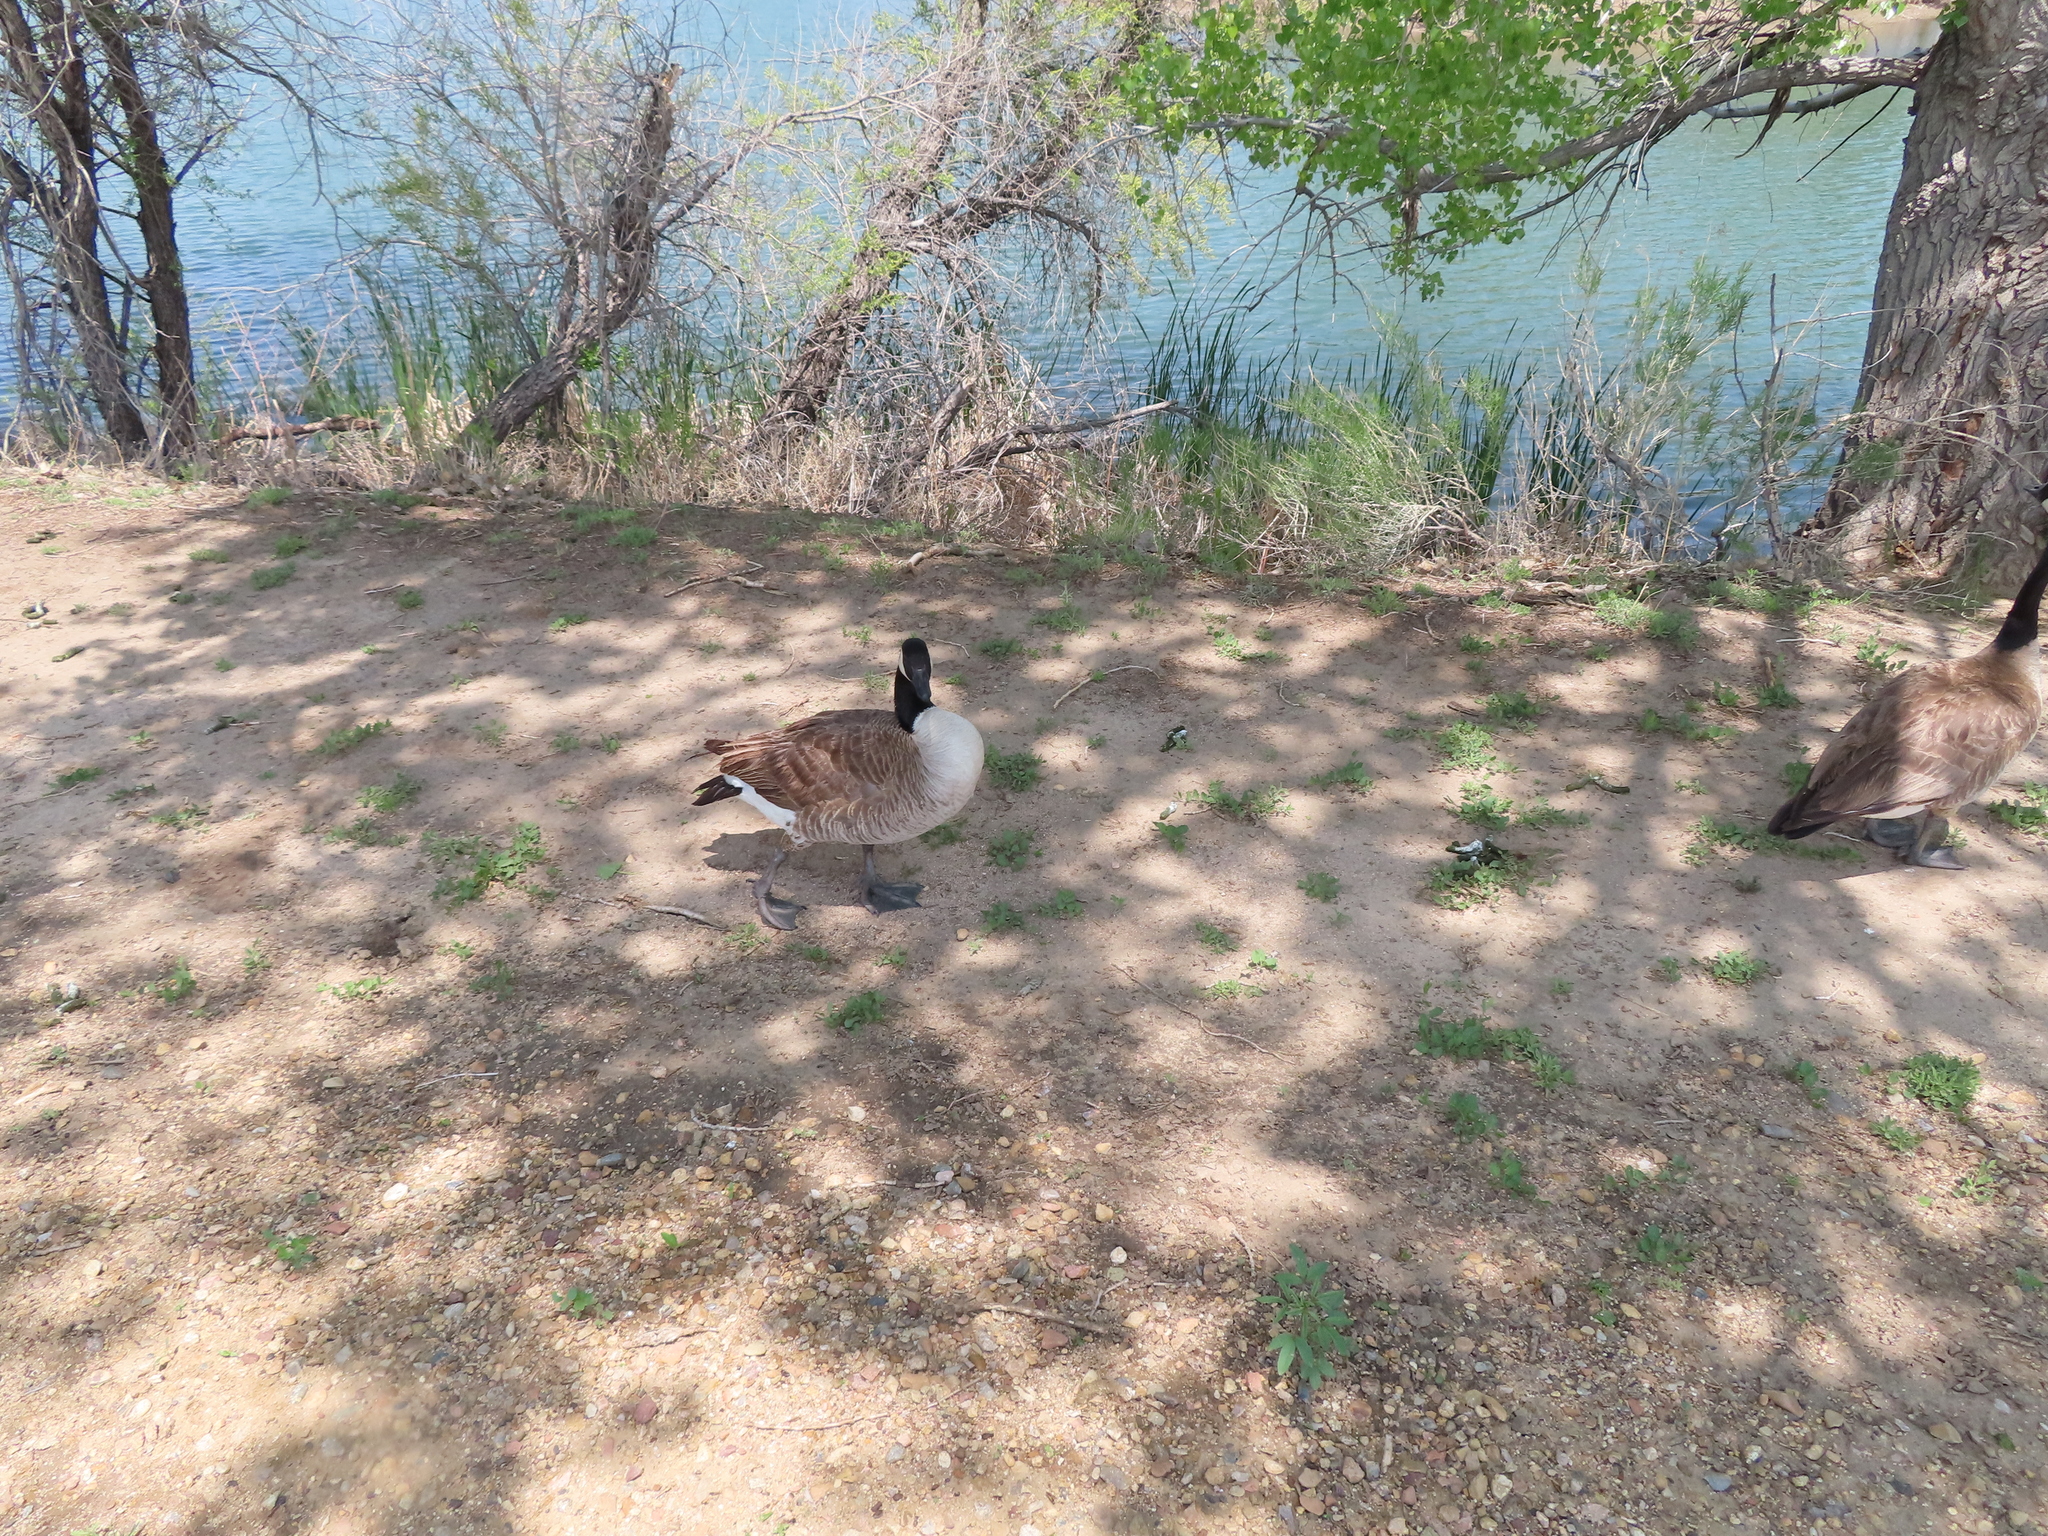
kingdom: Animalia
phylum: Chordata
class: Aves
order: Anseriformes
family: Anatidae
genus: Branta
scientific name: Branta canadensis
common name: Canada goose
